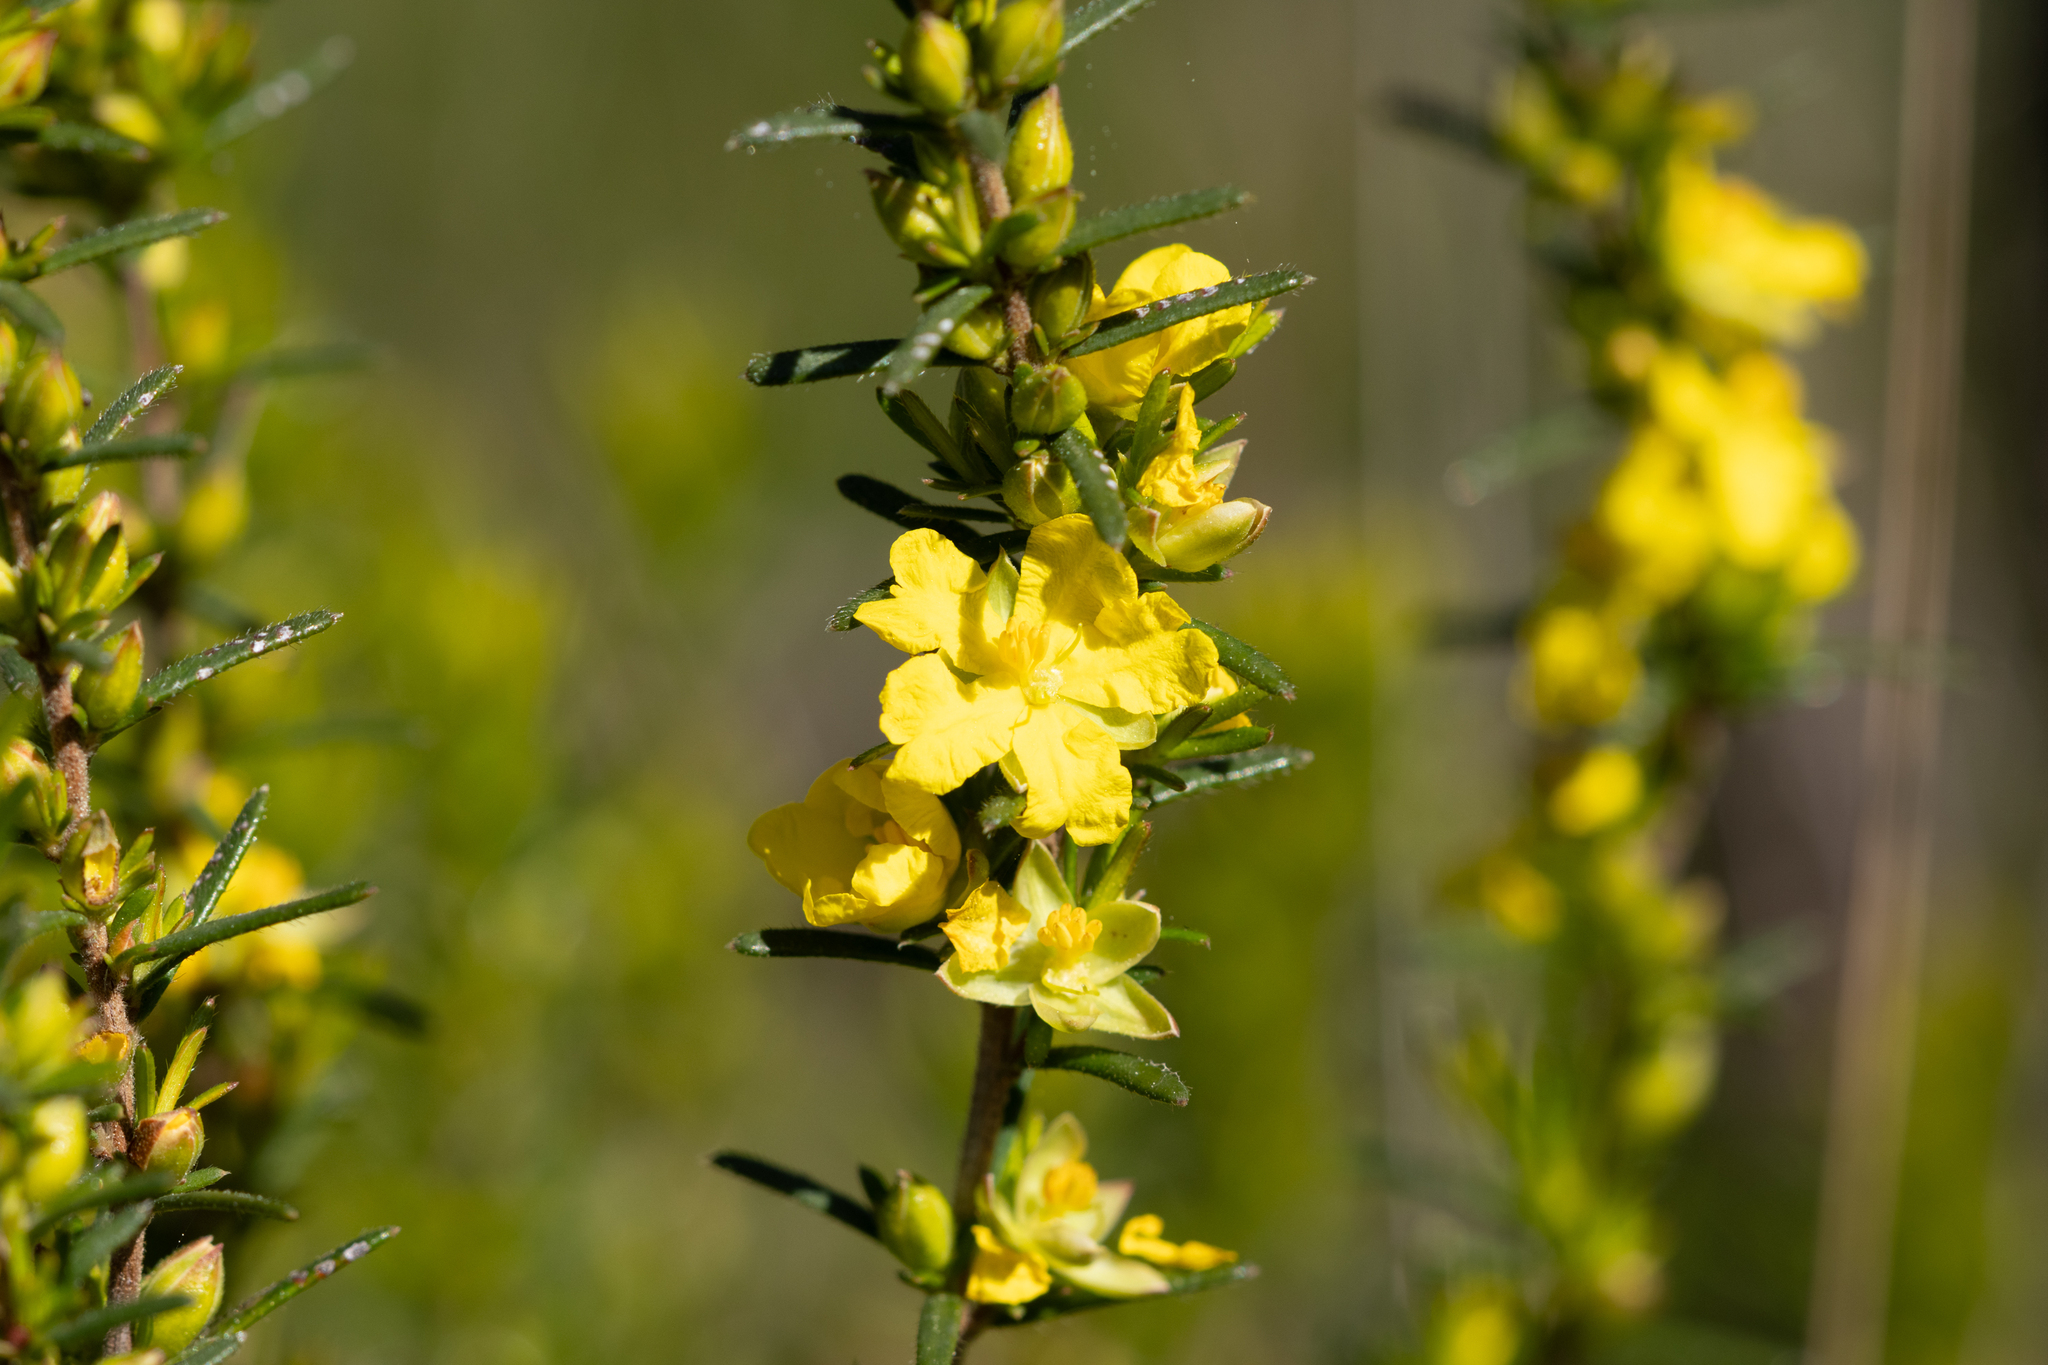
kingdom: Plantae
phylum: Tracheophyta
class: Magnoliopsida
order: Dilleniales
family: Dilleniaceae
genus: Hibbertia
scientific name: Hibbertia riparia
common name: Erect guinea-flower
